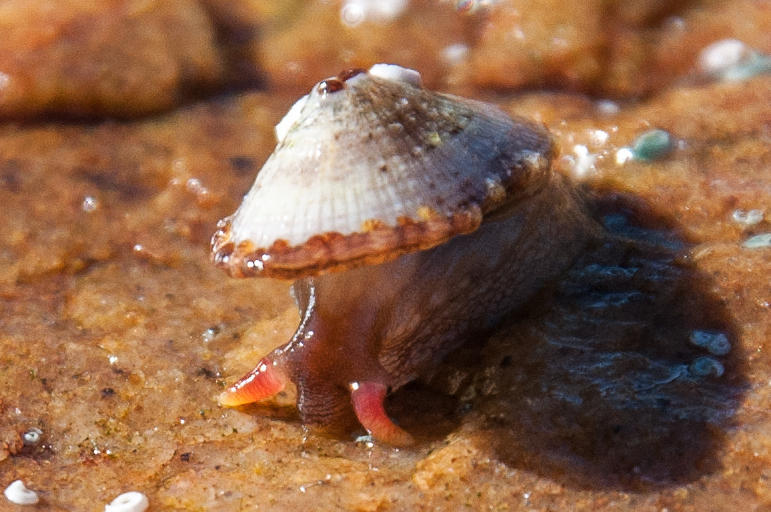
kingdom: Animalia
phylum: Mollusca
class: Gastropoda
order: Lepetellida
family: Fissurellidae
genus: Fissurella
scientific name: Fissurella mutabilis
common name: Cape keyhole limpet
